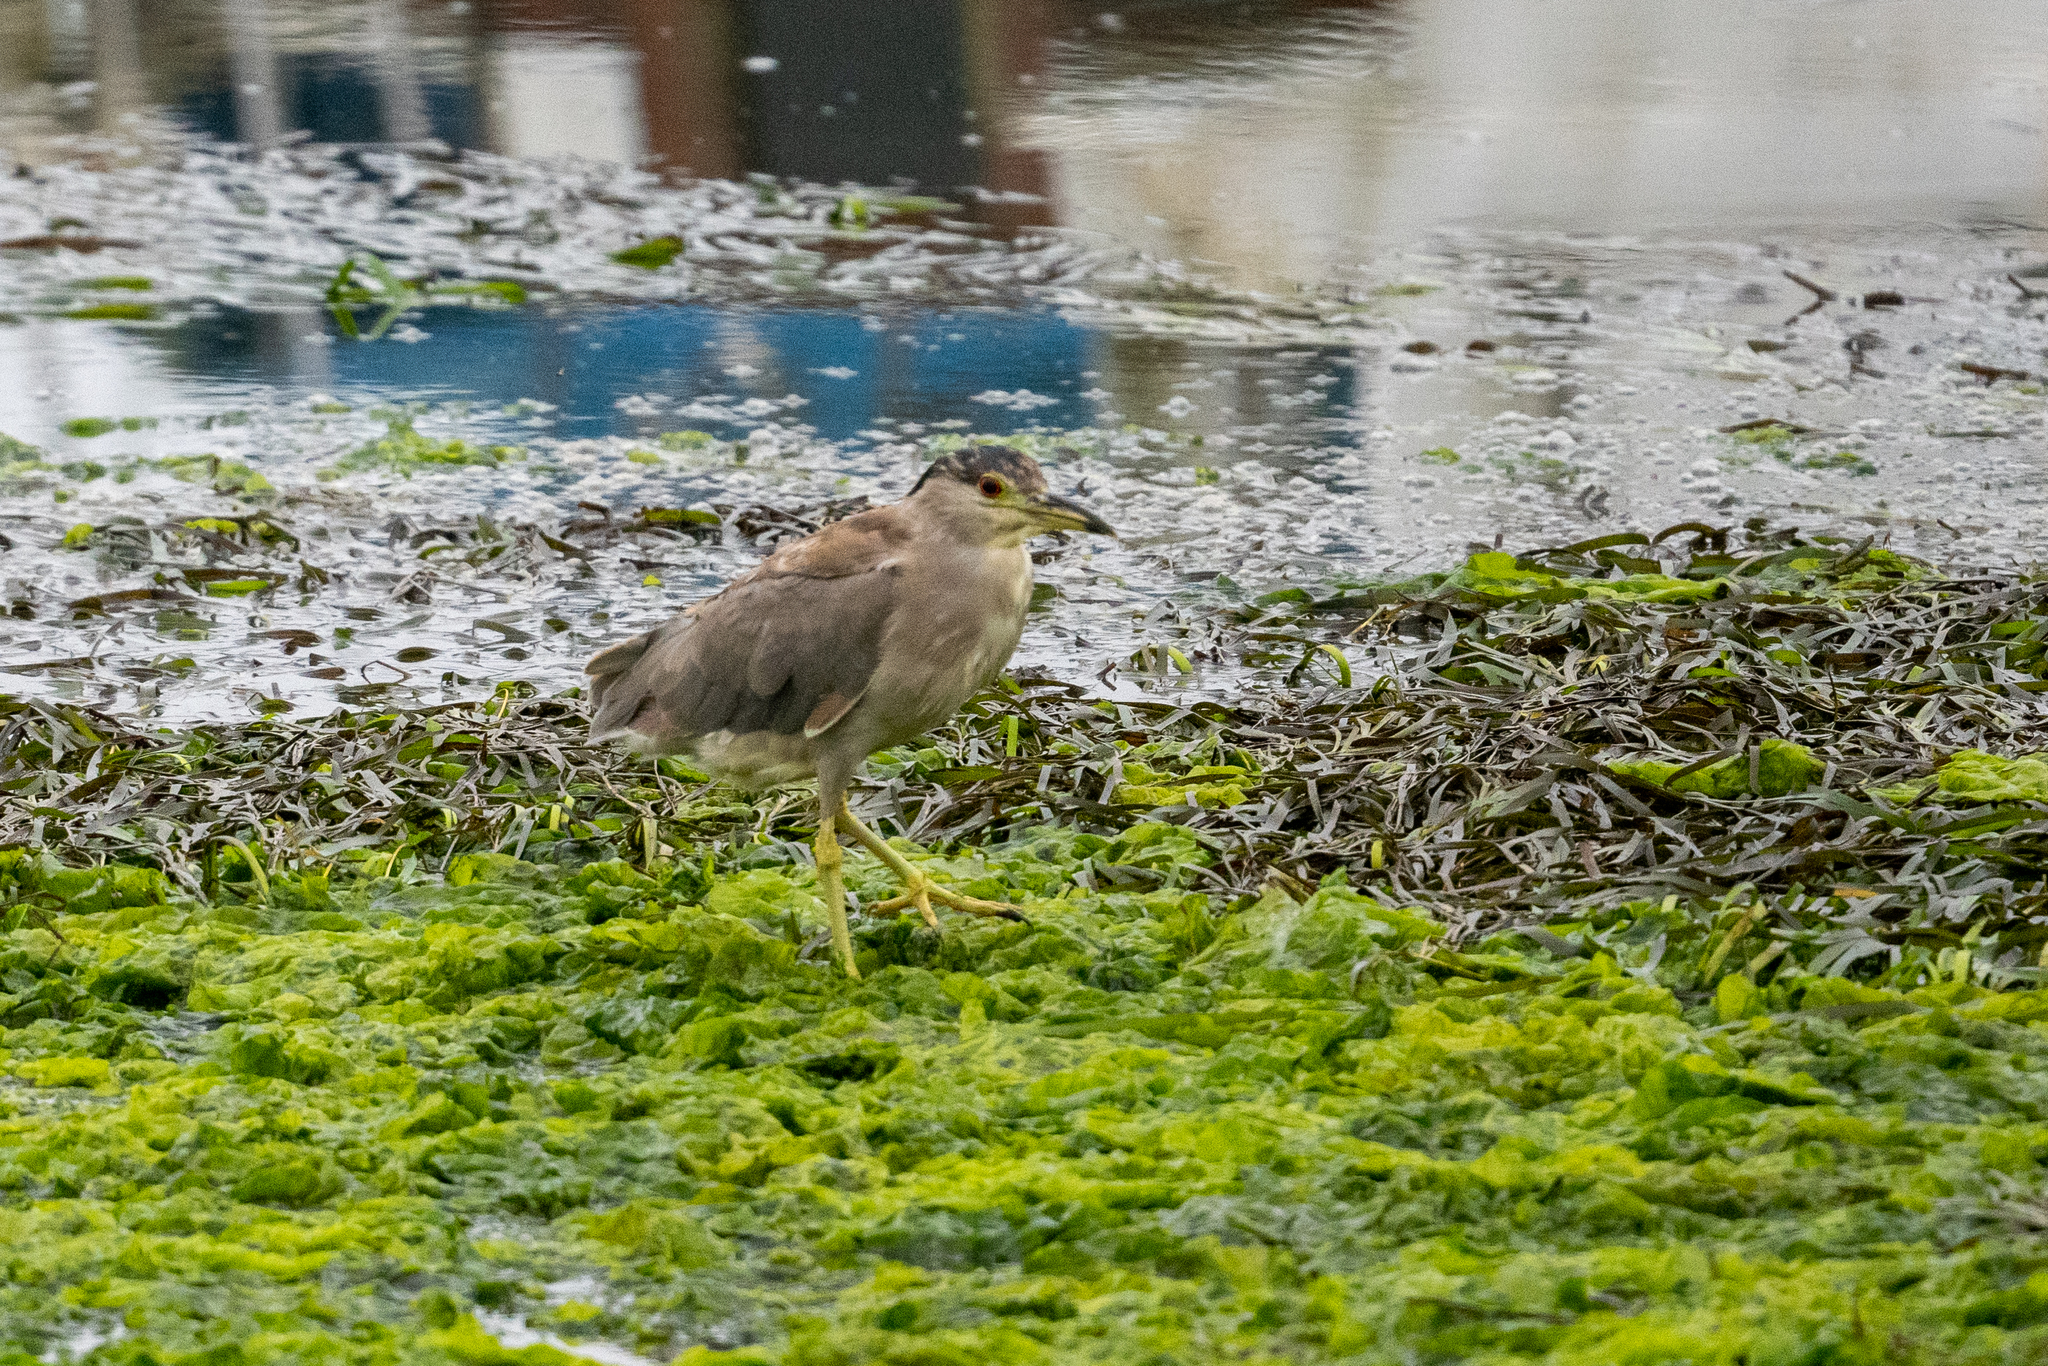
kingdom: Animalia
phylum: Chordata
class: Aves
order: Pelecaniformes
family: Ardeidae
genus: Nycticorax
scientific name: Nycticorax nycticorax
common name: Black-crowned night heron
